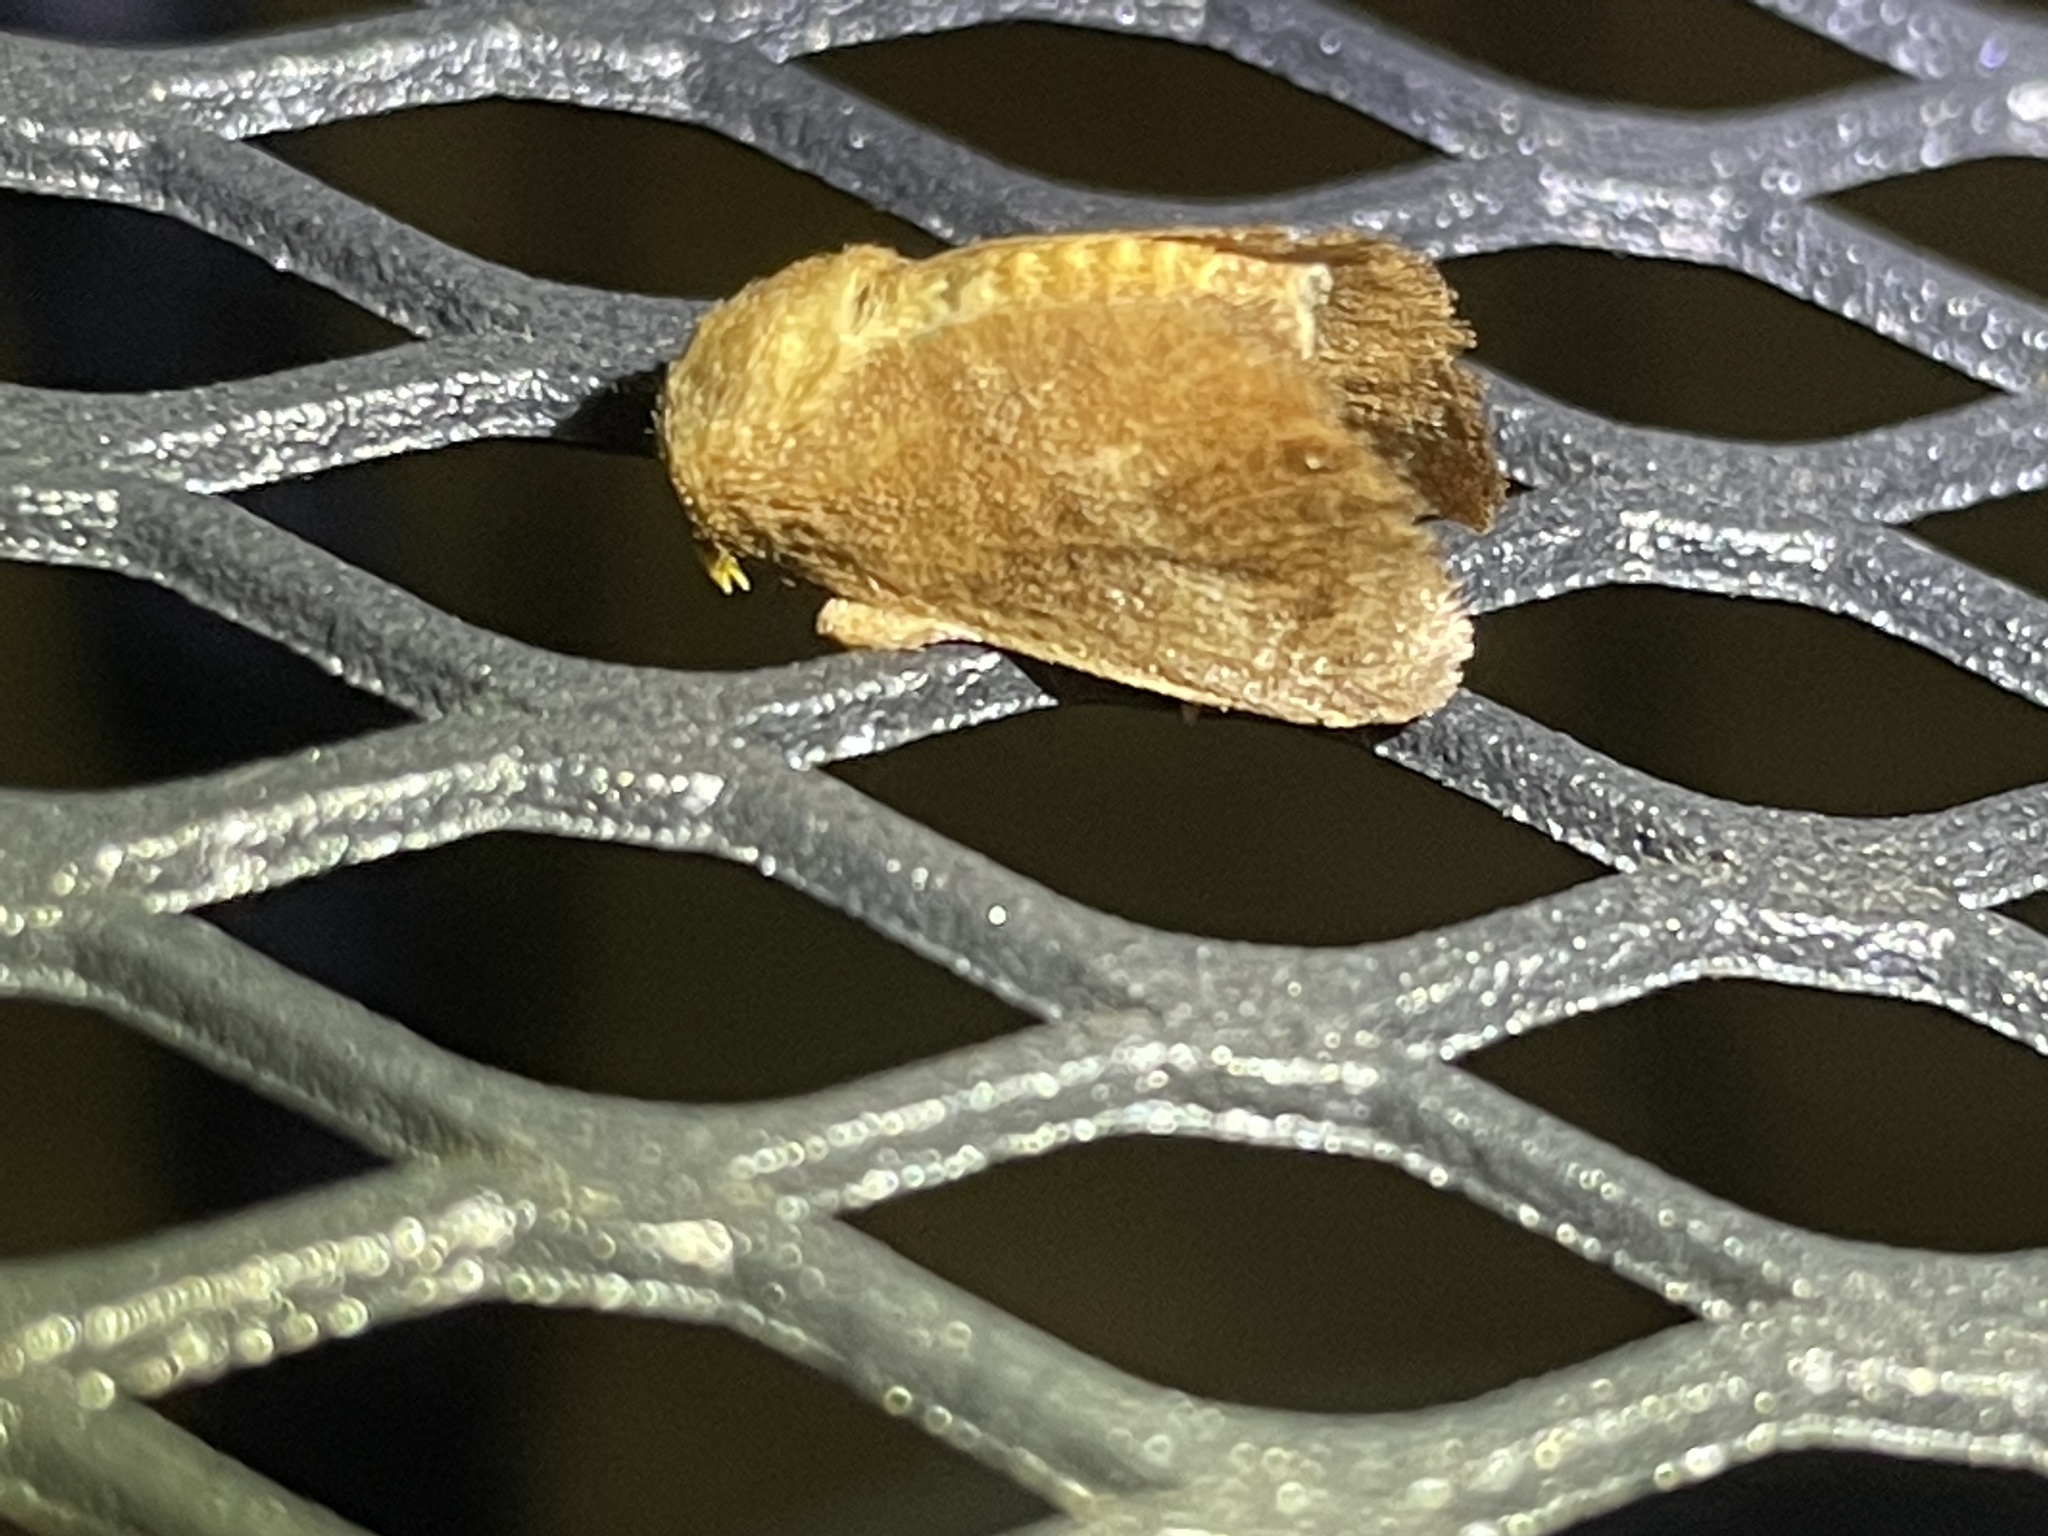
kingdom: Animalia
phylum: Arthropoda
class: Insecta
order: Lepidoptera
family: Limacodidae
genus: Isa
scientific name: Isa textula
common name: Crowned slug moth
